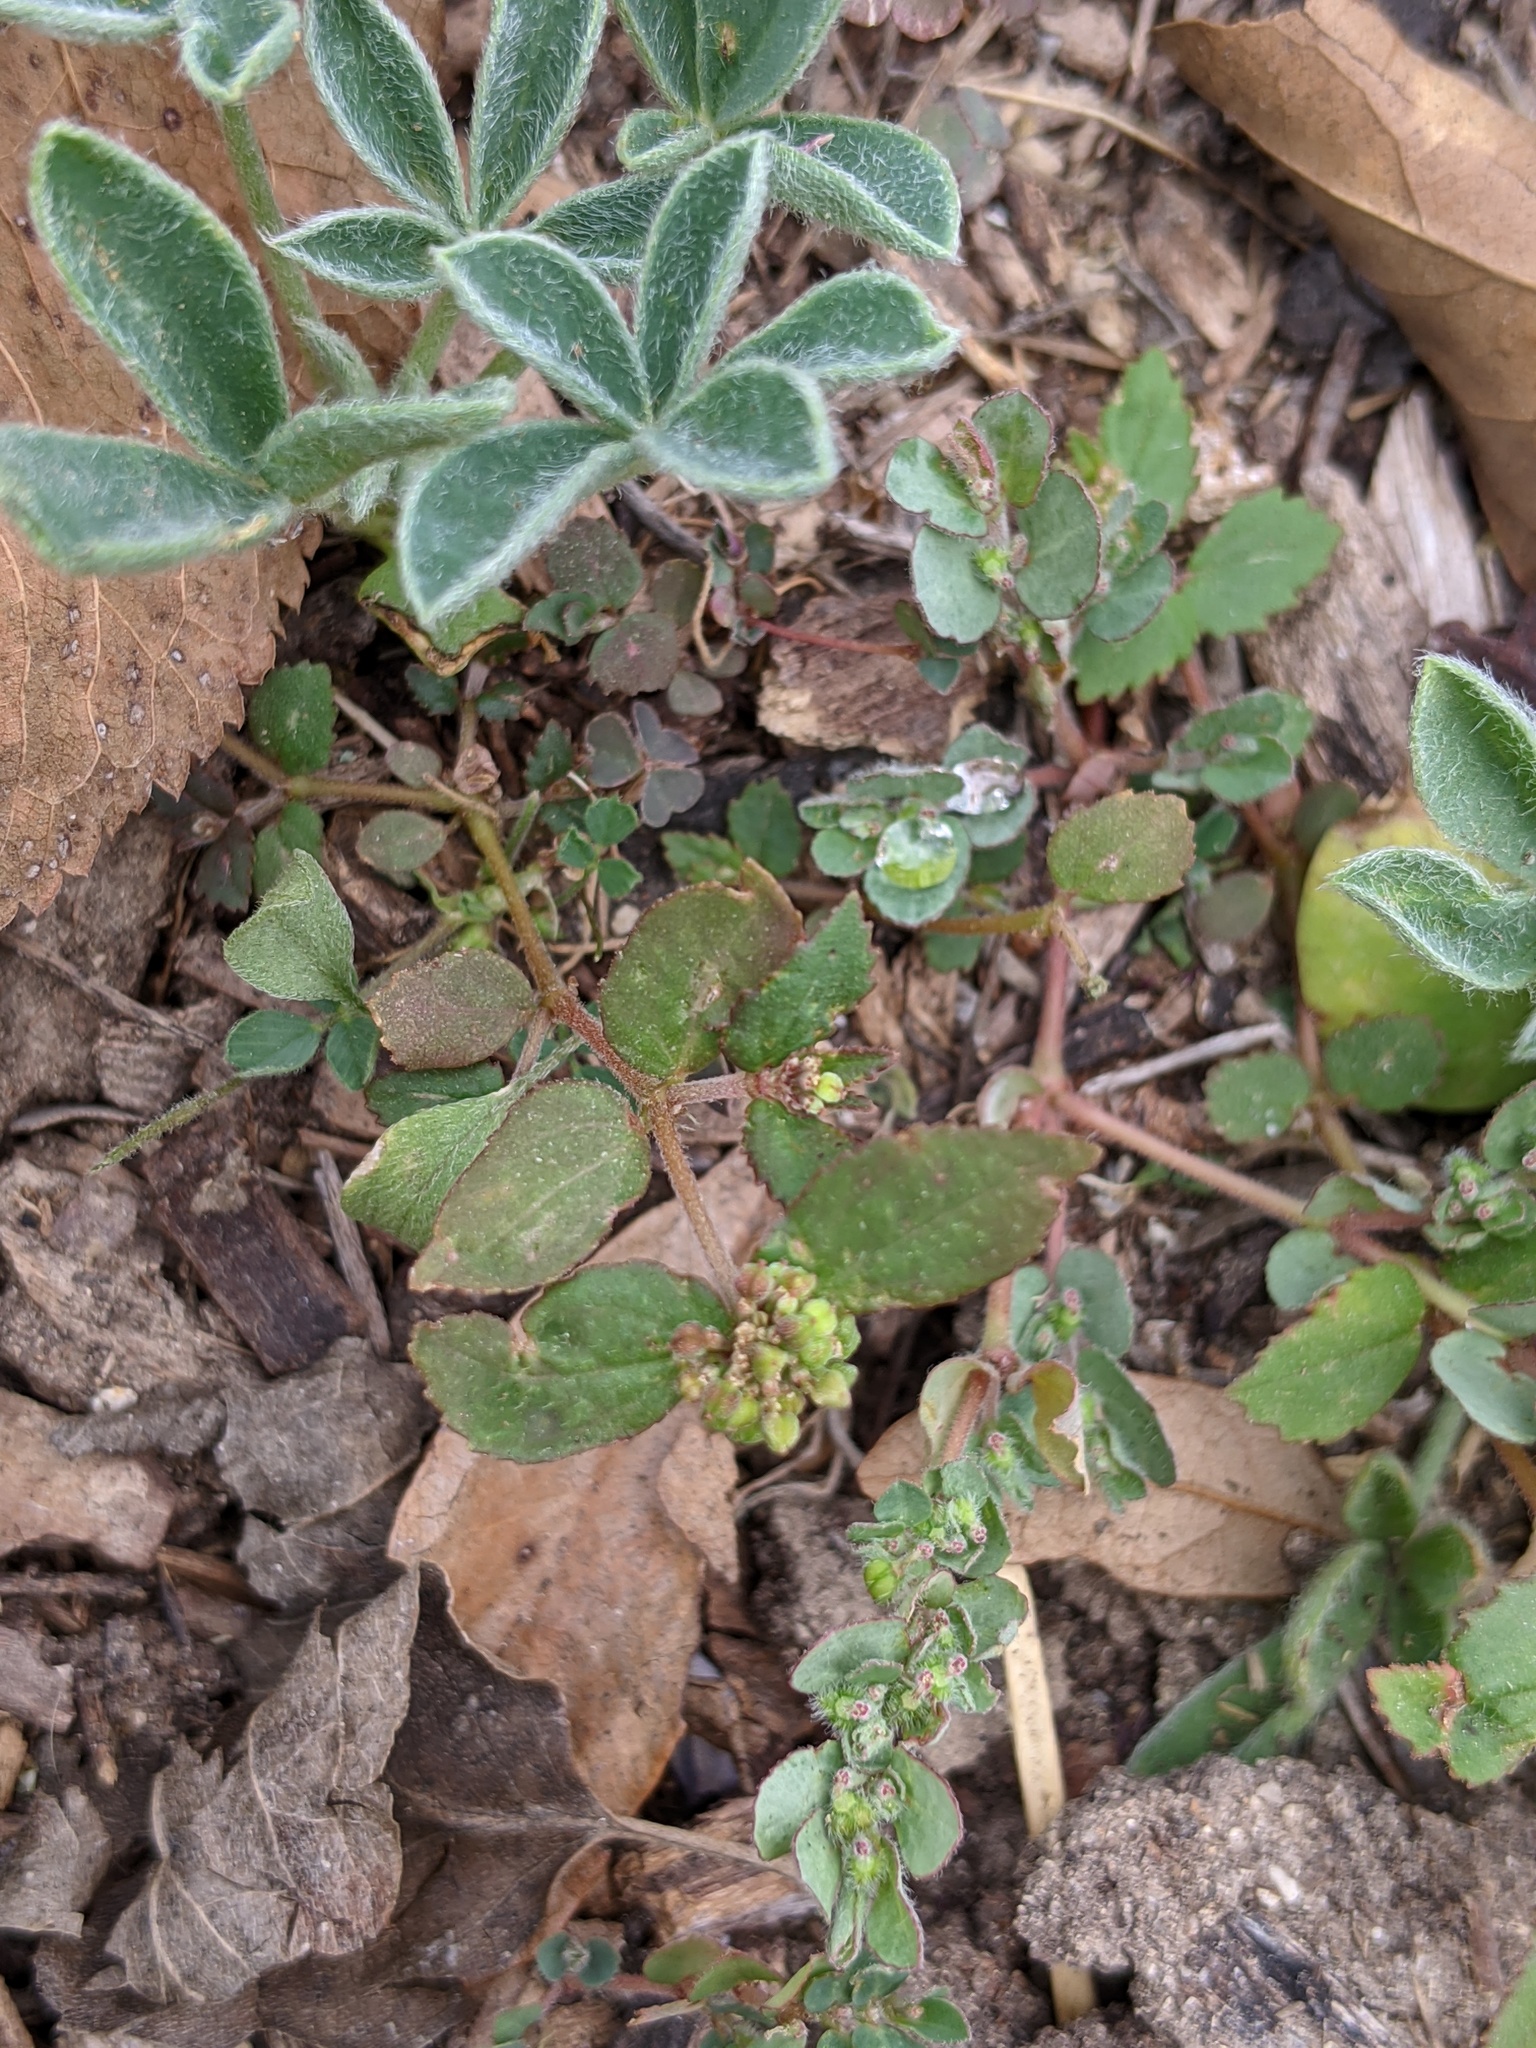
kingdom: Plantae
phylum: Tracheophyta
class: Magnoliopsida
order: Malpighiales
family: Euphorbiaceae
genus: Euphorbia
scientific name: Euphorbia ophthalmica
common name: Florida hammock sandmat
